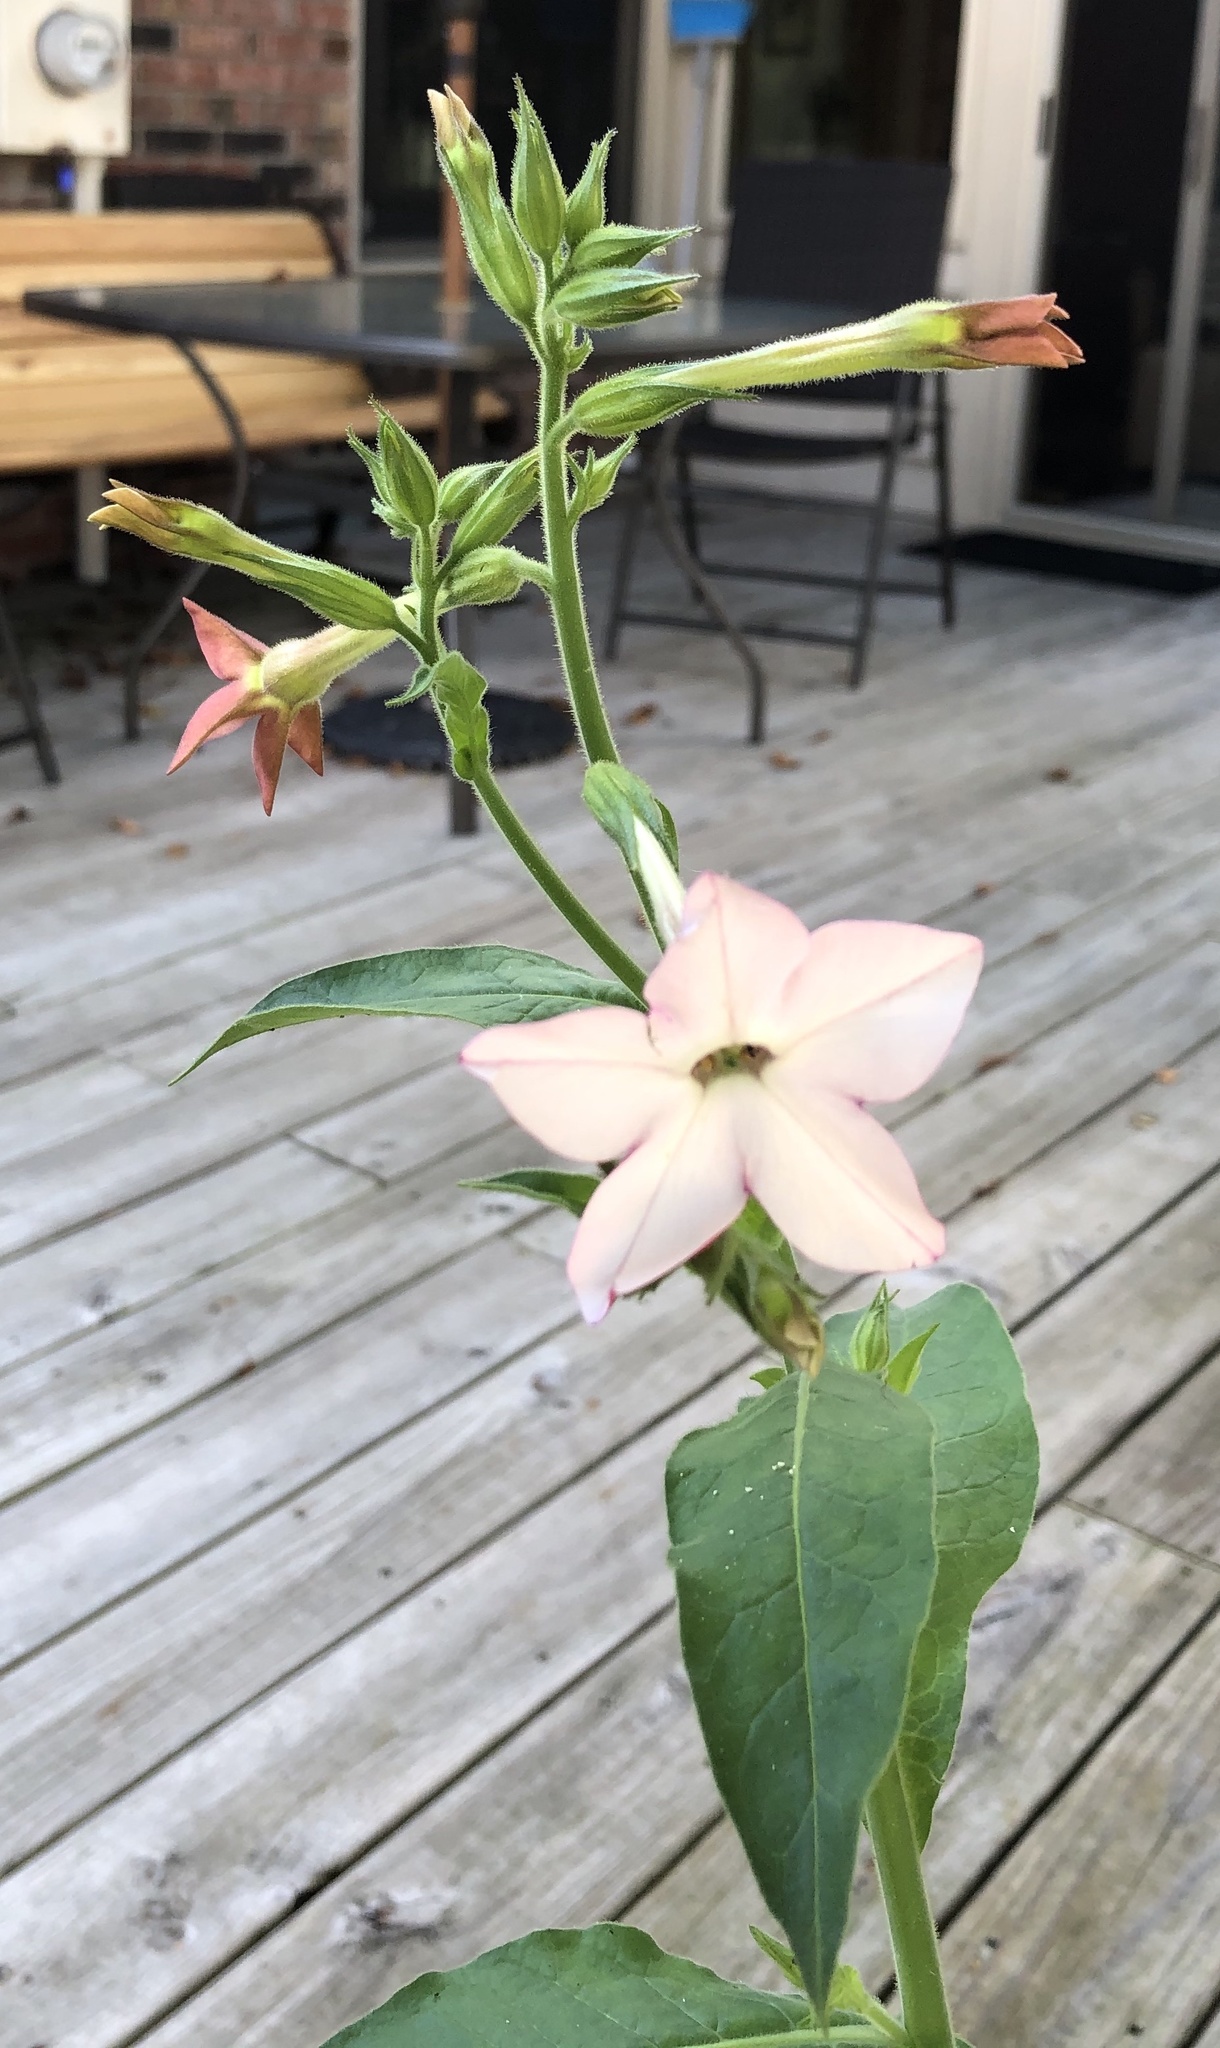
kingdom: Plantae
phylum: Tracheophyta
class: Magnoliopsida
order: Solanales
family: Solanaceae
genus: Nicotiana
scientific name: Nicotiana tabacum
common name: Tobacco
